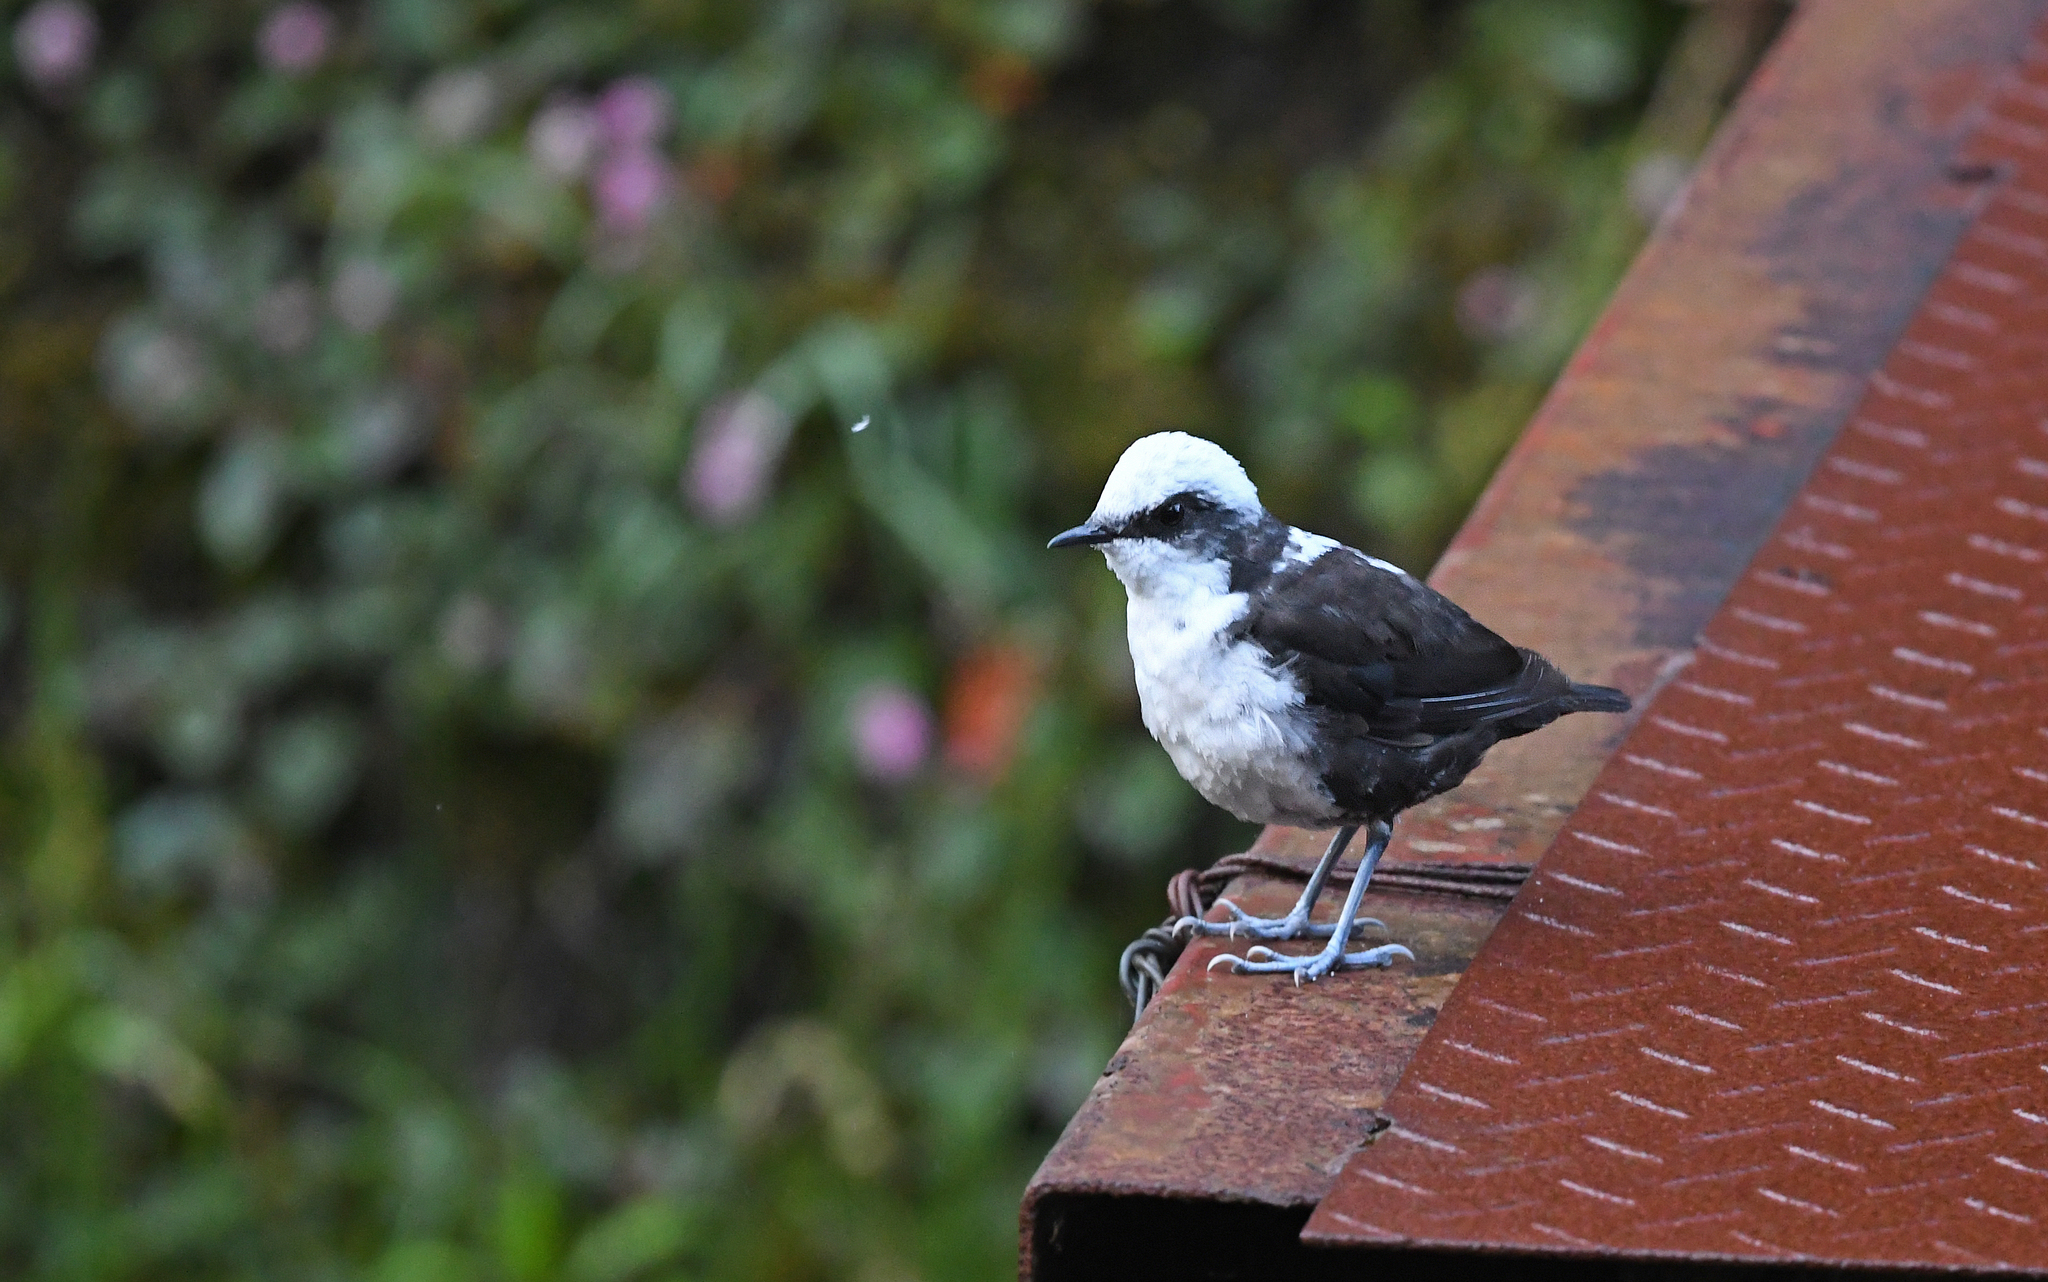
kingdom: Animalia
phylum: Chordata
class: Aves
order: Passeriformes
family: Cinclidae
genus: Cinclus
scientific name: Cinclus leucocephalus
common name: White-capped dipper
